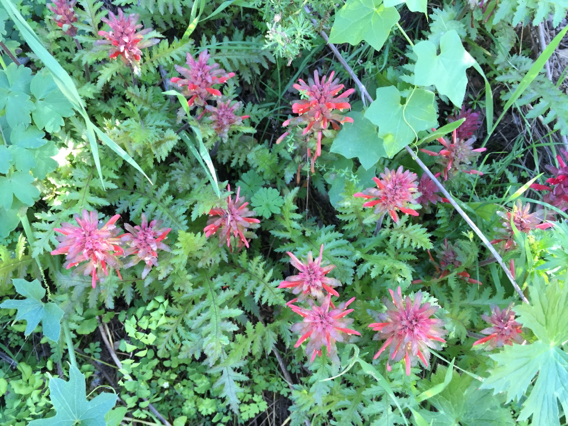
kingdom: Plantae
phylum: Tracheophyta
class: Magnoliopsida
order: Lamiales
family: Orobanchaceae
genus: Pedicularis
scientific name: Pedicularis densiflora
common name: Indian warrior
